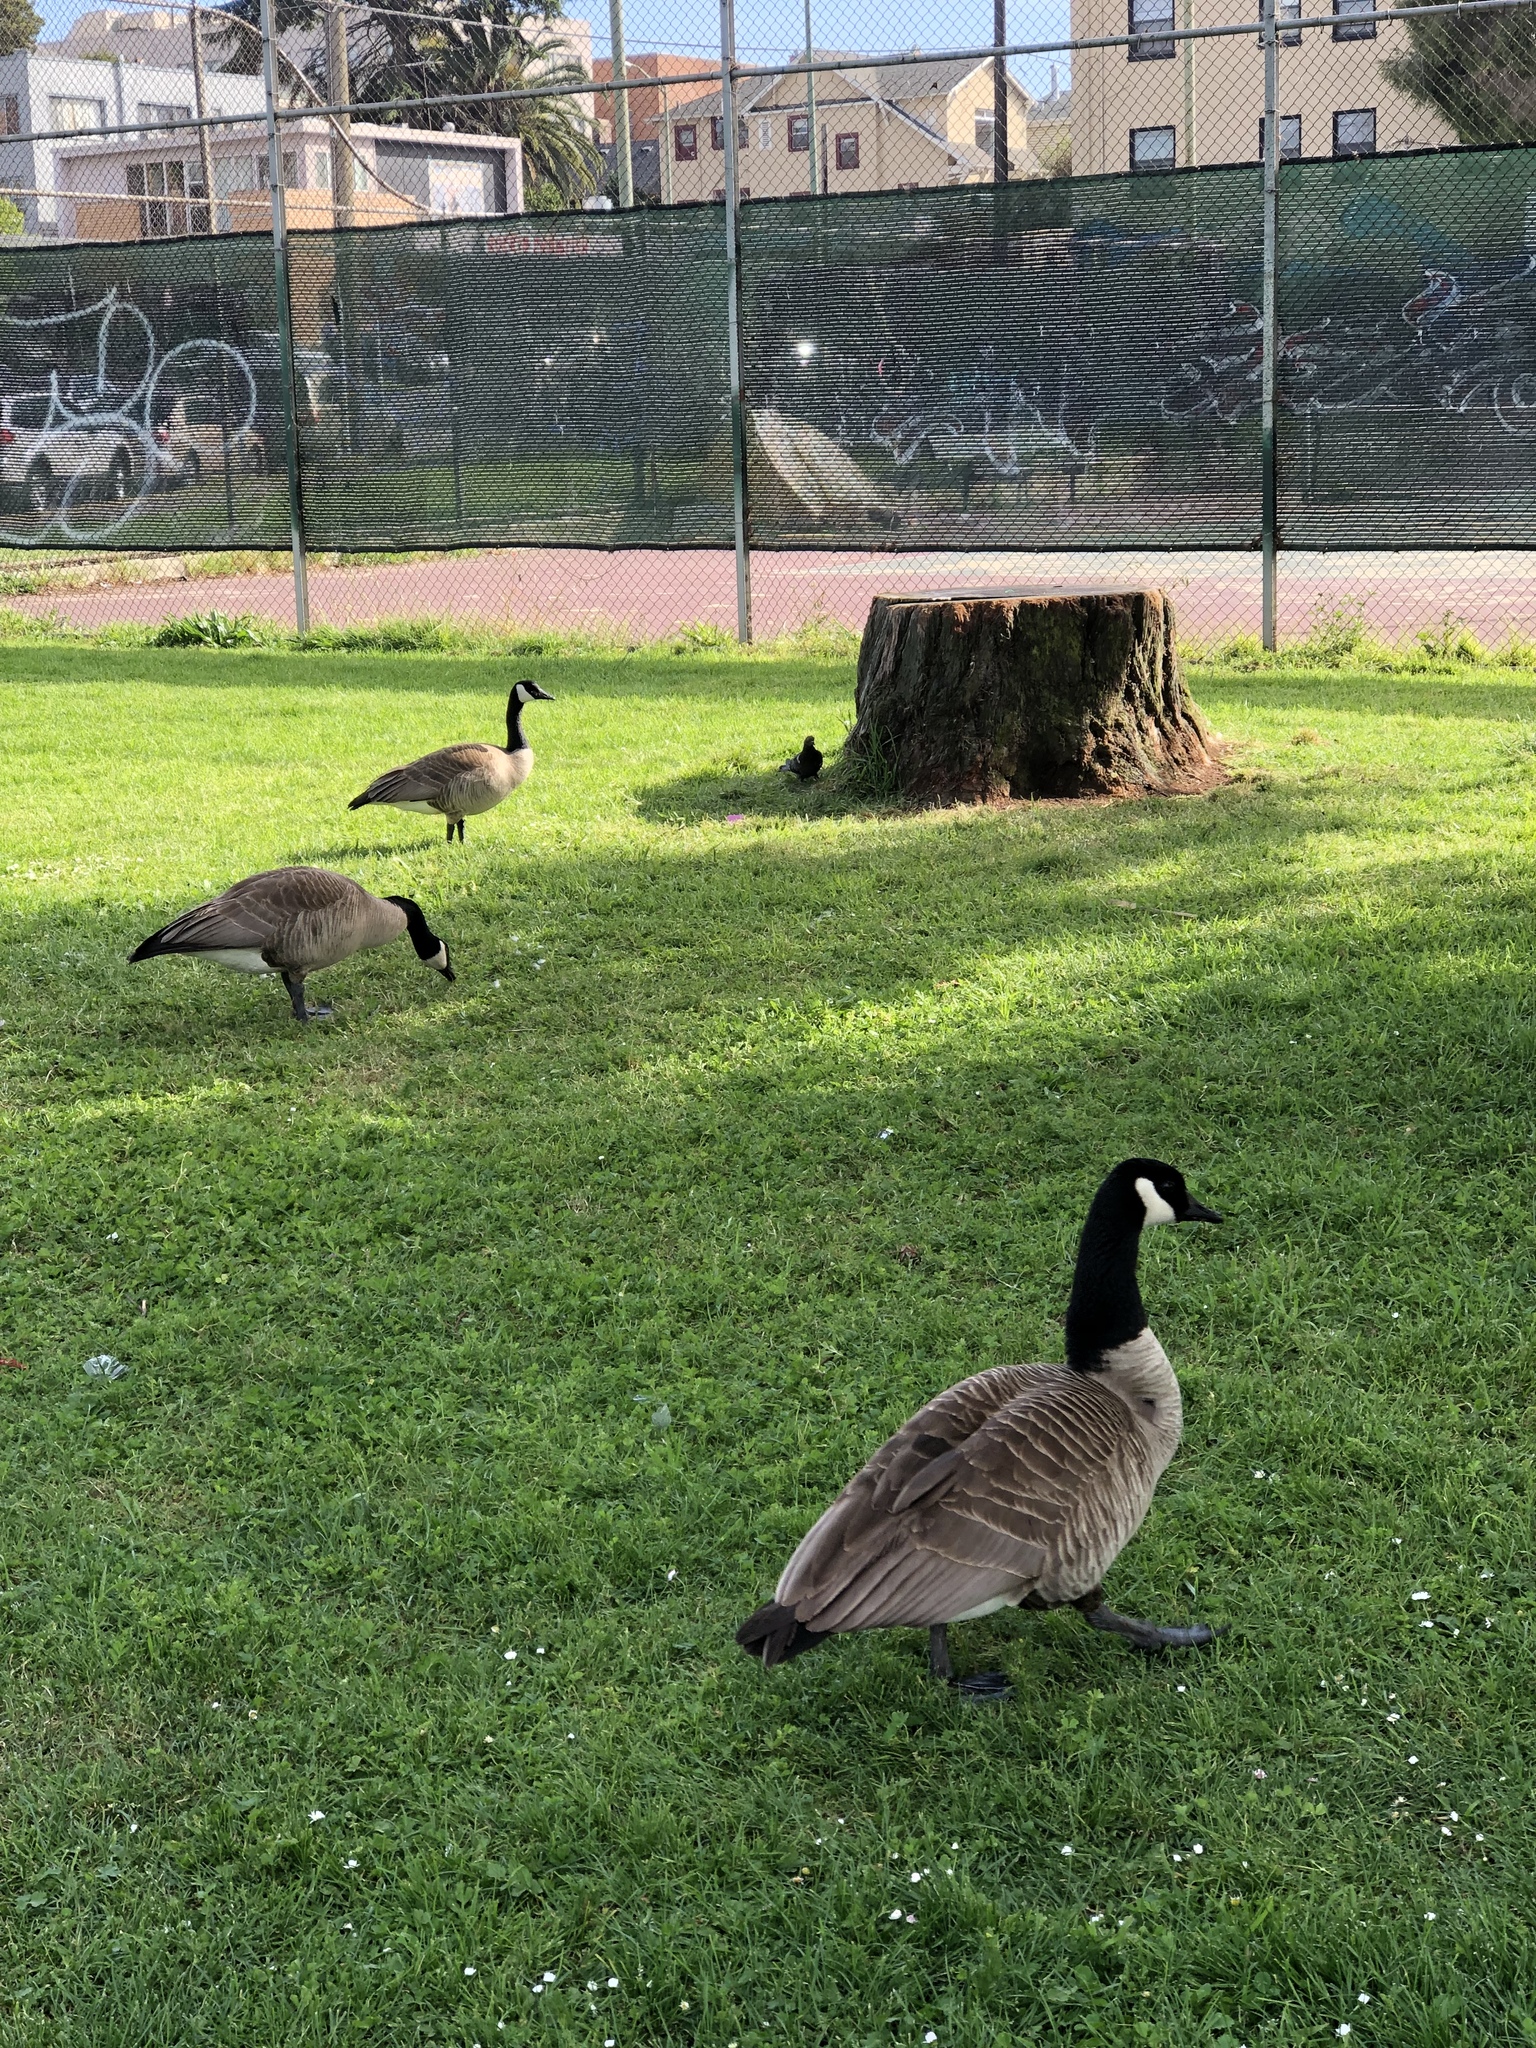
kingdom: Animalia
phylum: Chordata
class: Aves
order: Anseriformes
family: Anatidae
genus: Branta
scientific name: Branta canadensis
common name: Canada goose
